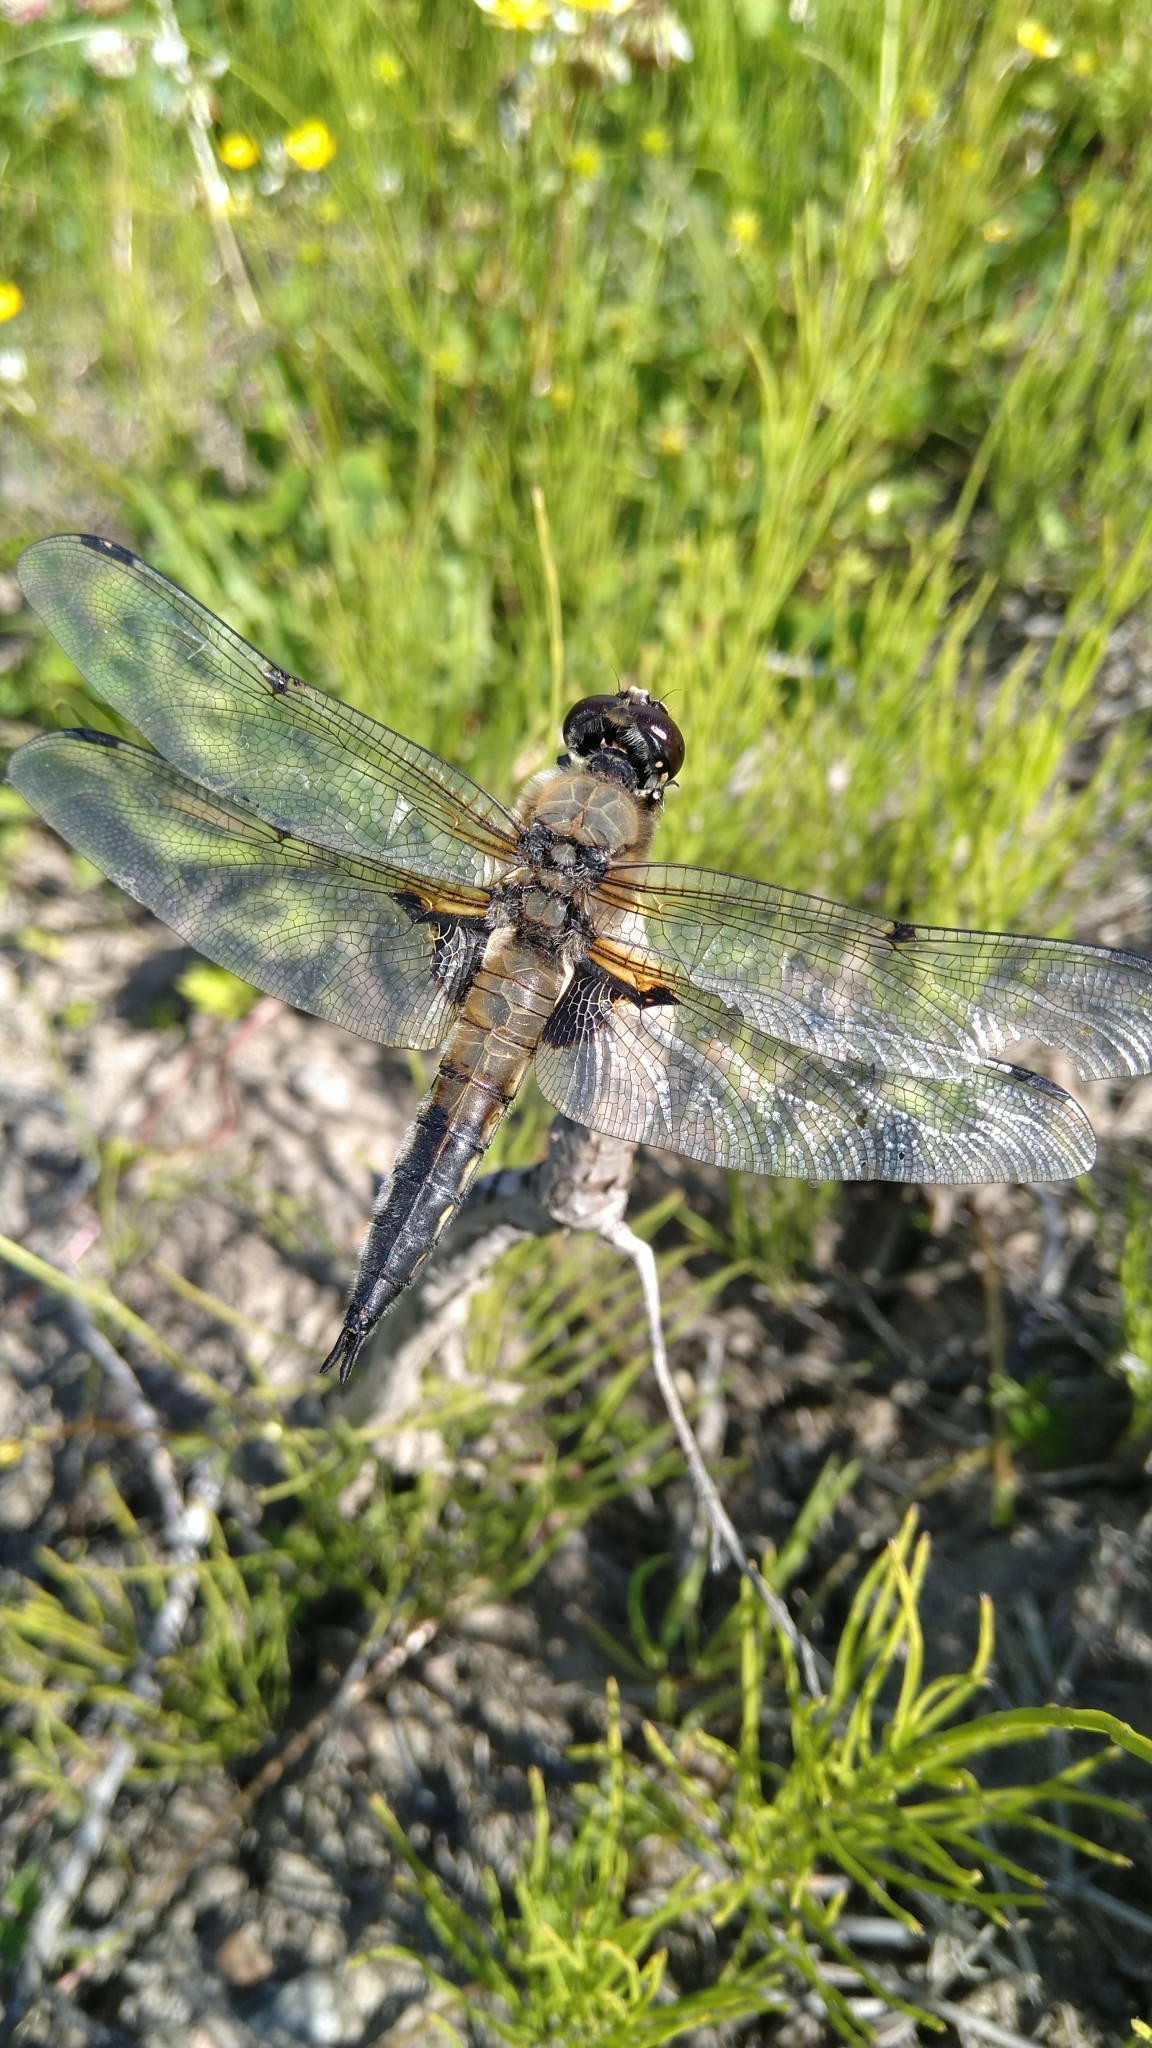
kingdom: Animalia
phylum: Arthropoda
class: Insecta
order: Odonata
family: Libellulidae
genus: Libellula
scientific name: Libellula quadrimaculata
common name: Four-spotted chaser
